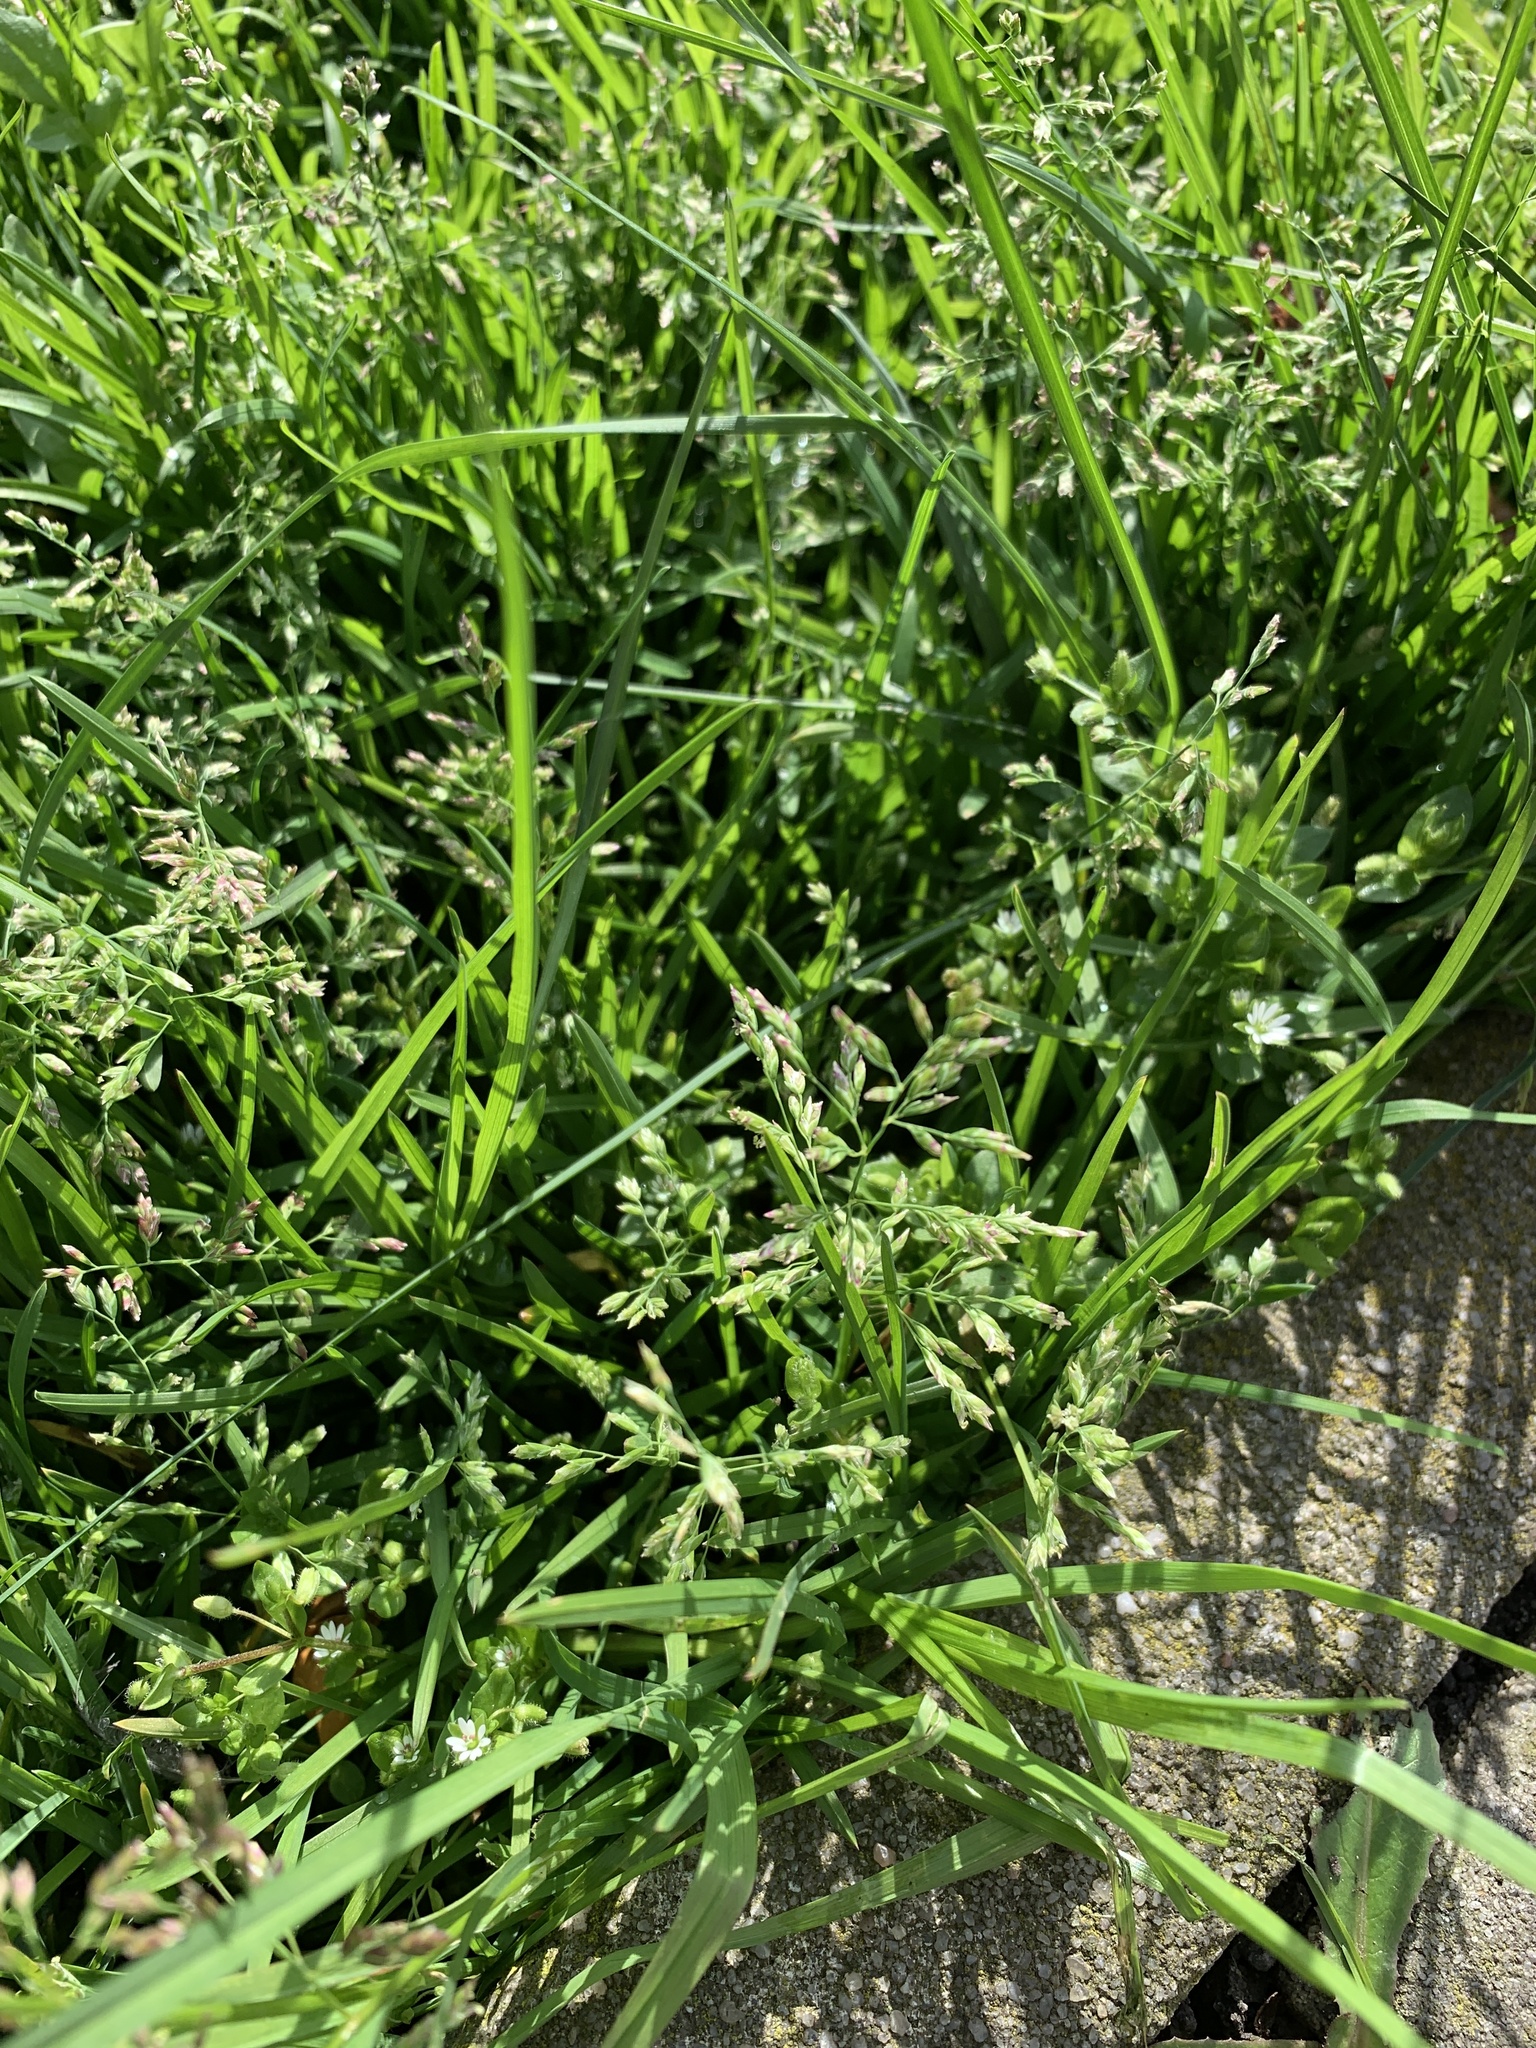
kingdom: Plantae
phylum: Tracheophyta
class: Liliopsida
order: Poales
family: Poaceae
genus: Poa
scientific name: Poa annua
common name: Annual bluegrass
